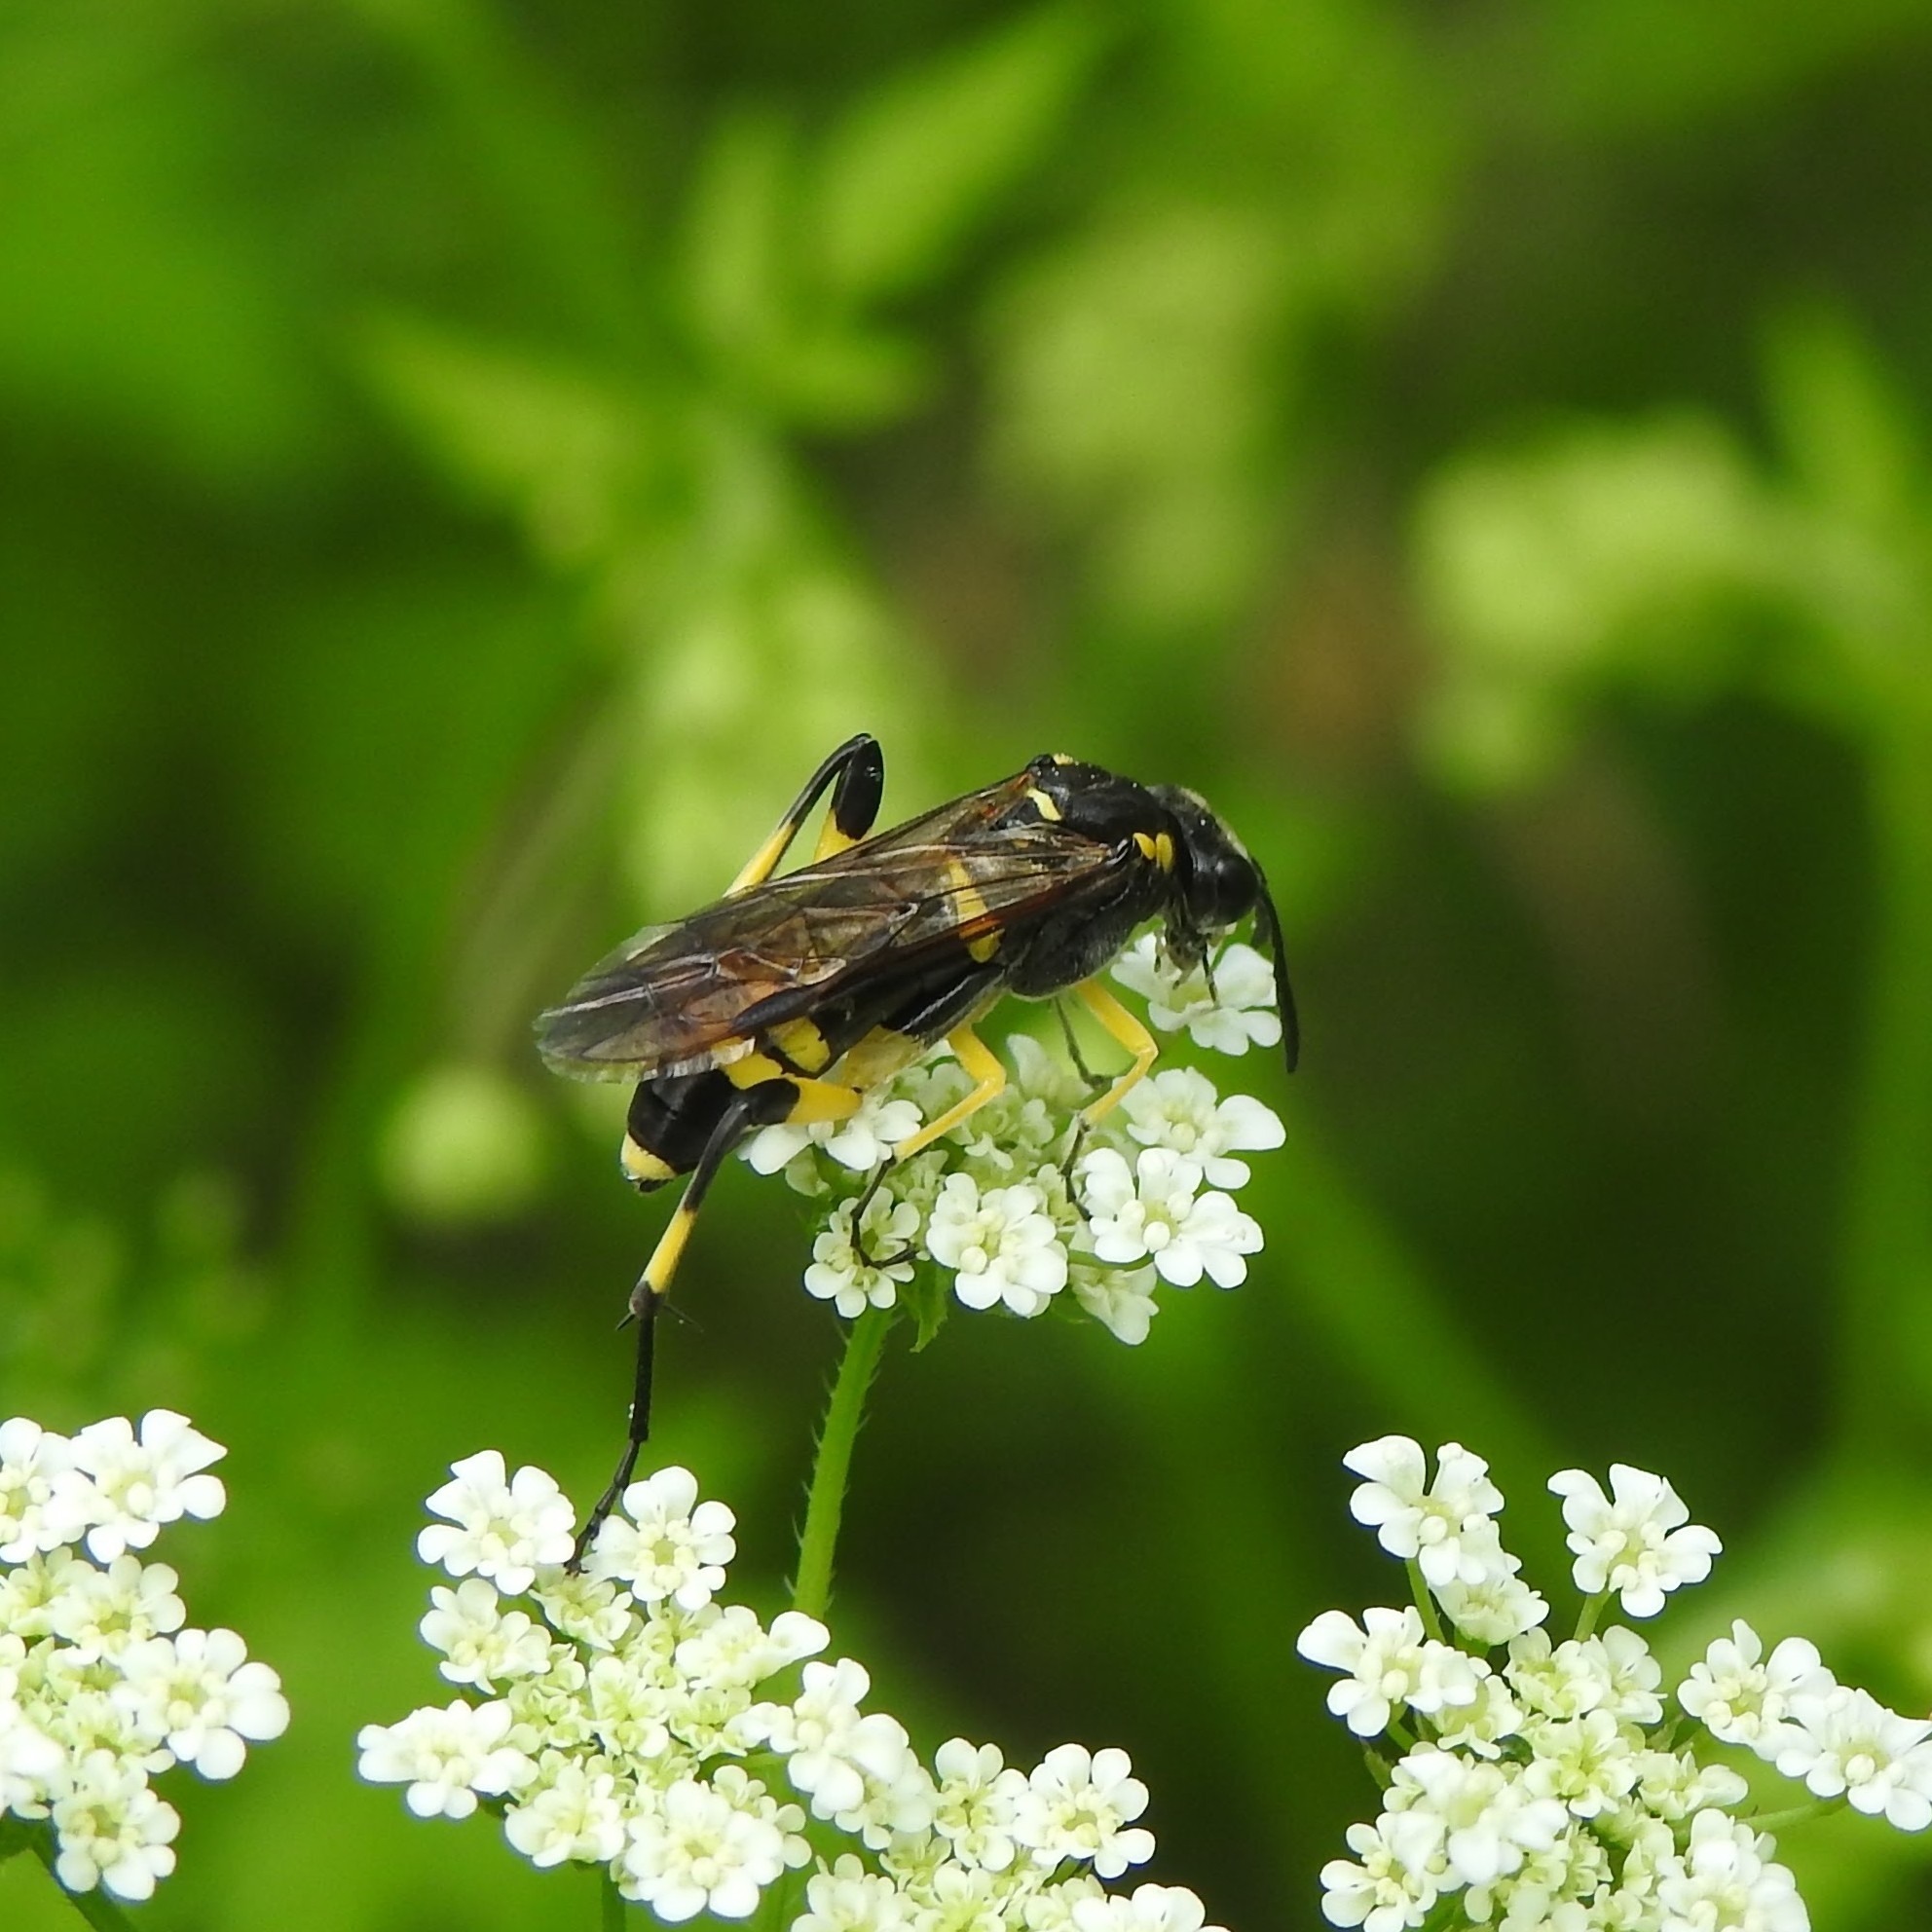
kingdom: Animalia
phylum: Arthropoda
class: Insecta
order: Hymenoptera
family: Tenthredinidae
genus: Macrophya
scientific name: Macrophya montana
